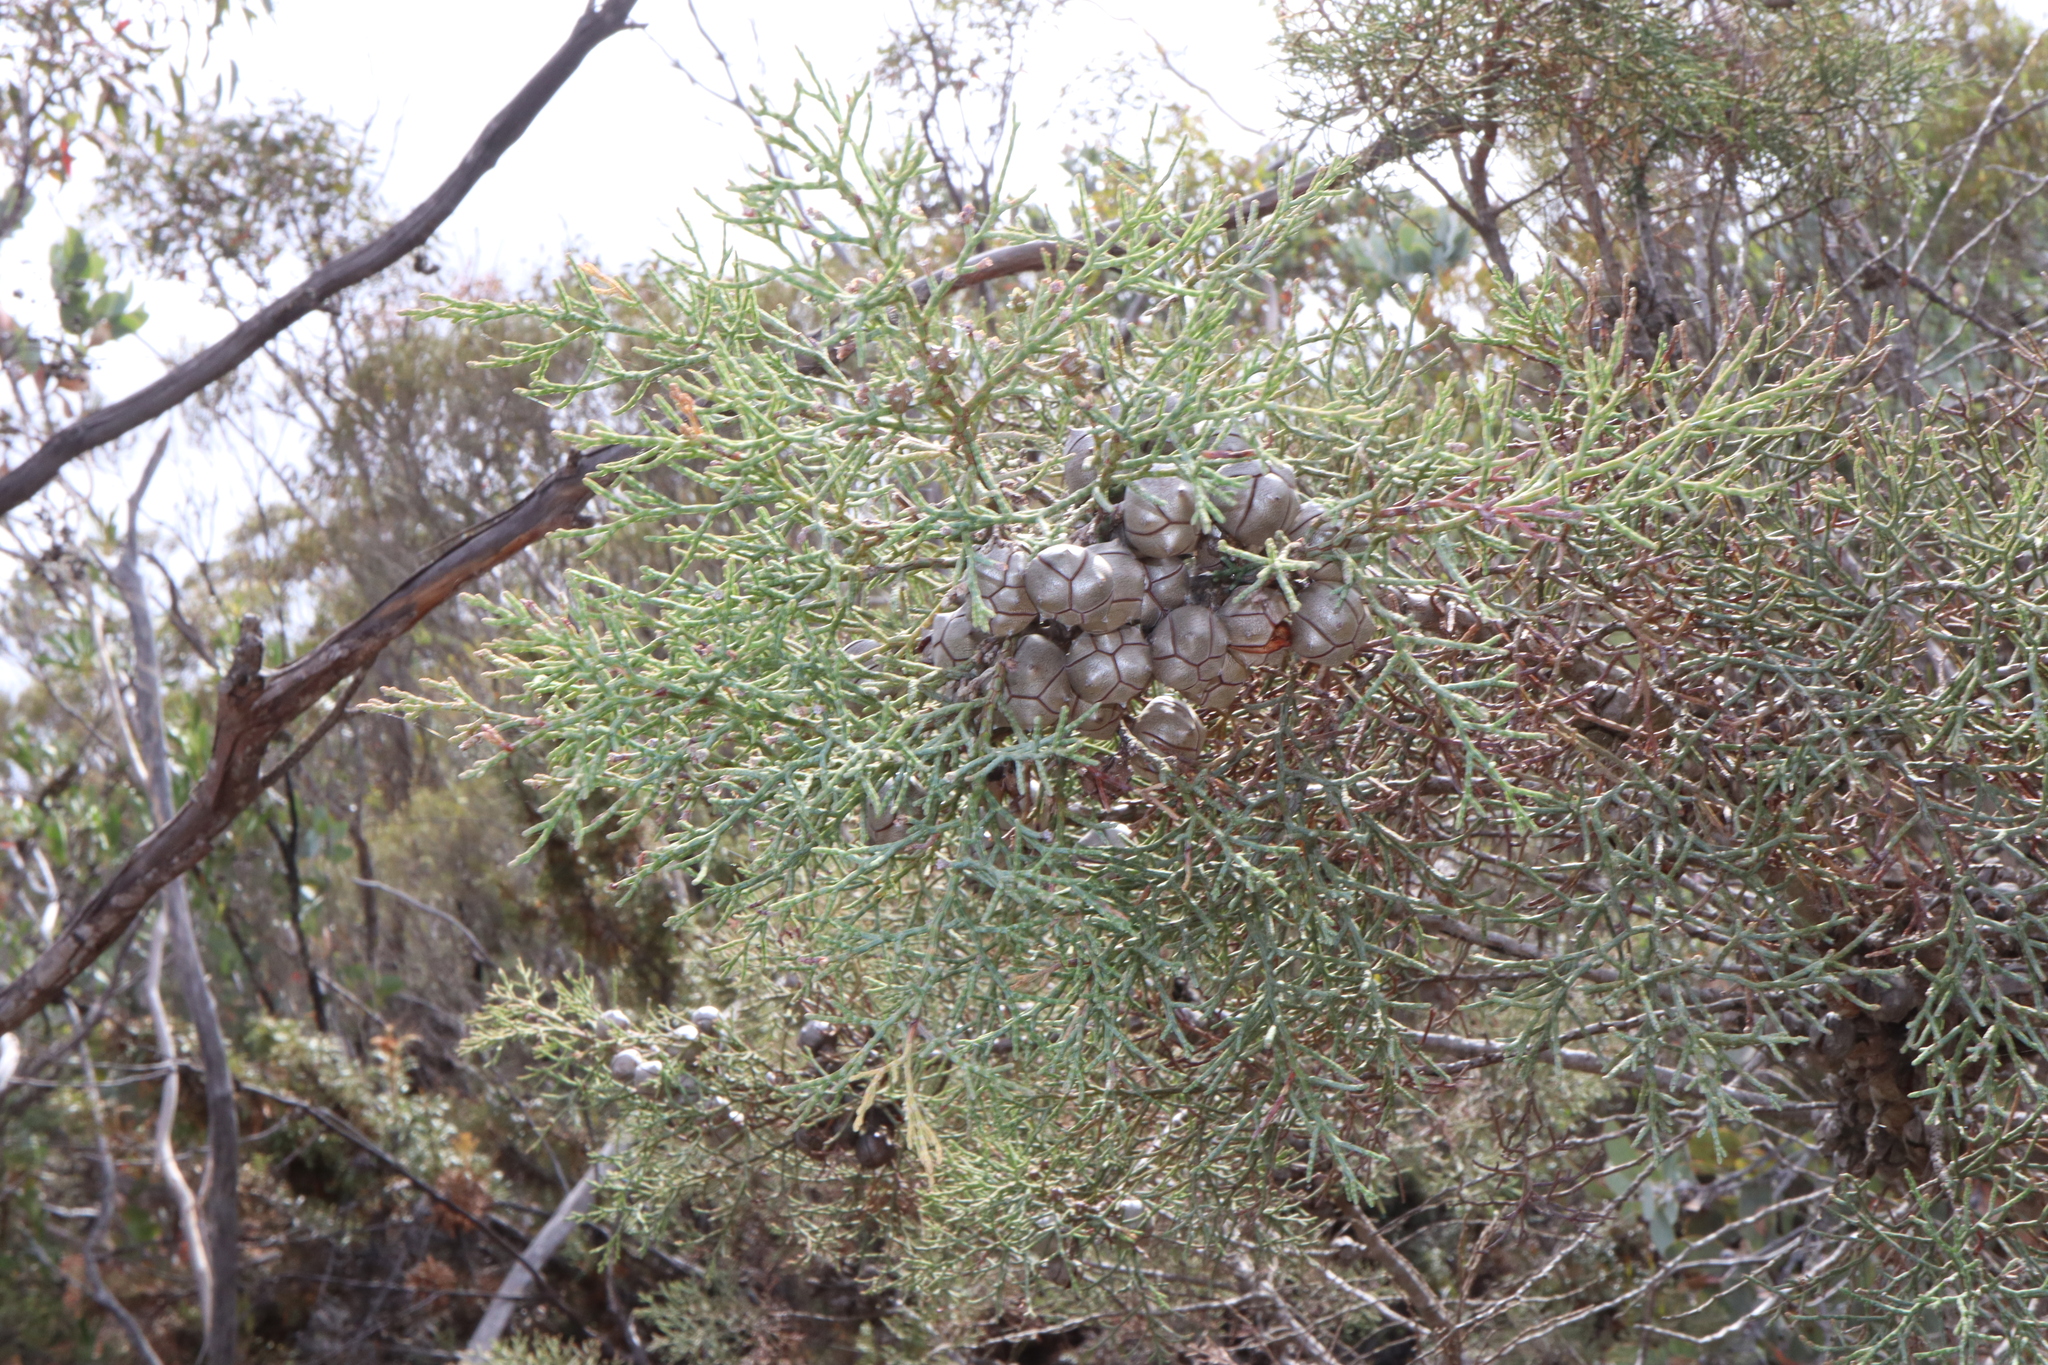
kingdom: Plantae
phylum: Tracheophyta
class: Pinopsida
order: Pinales
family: Cupressaceae
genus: Callitris
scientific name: Callitris roei
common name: Roe's cypress-pine
